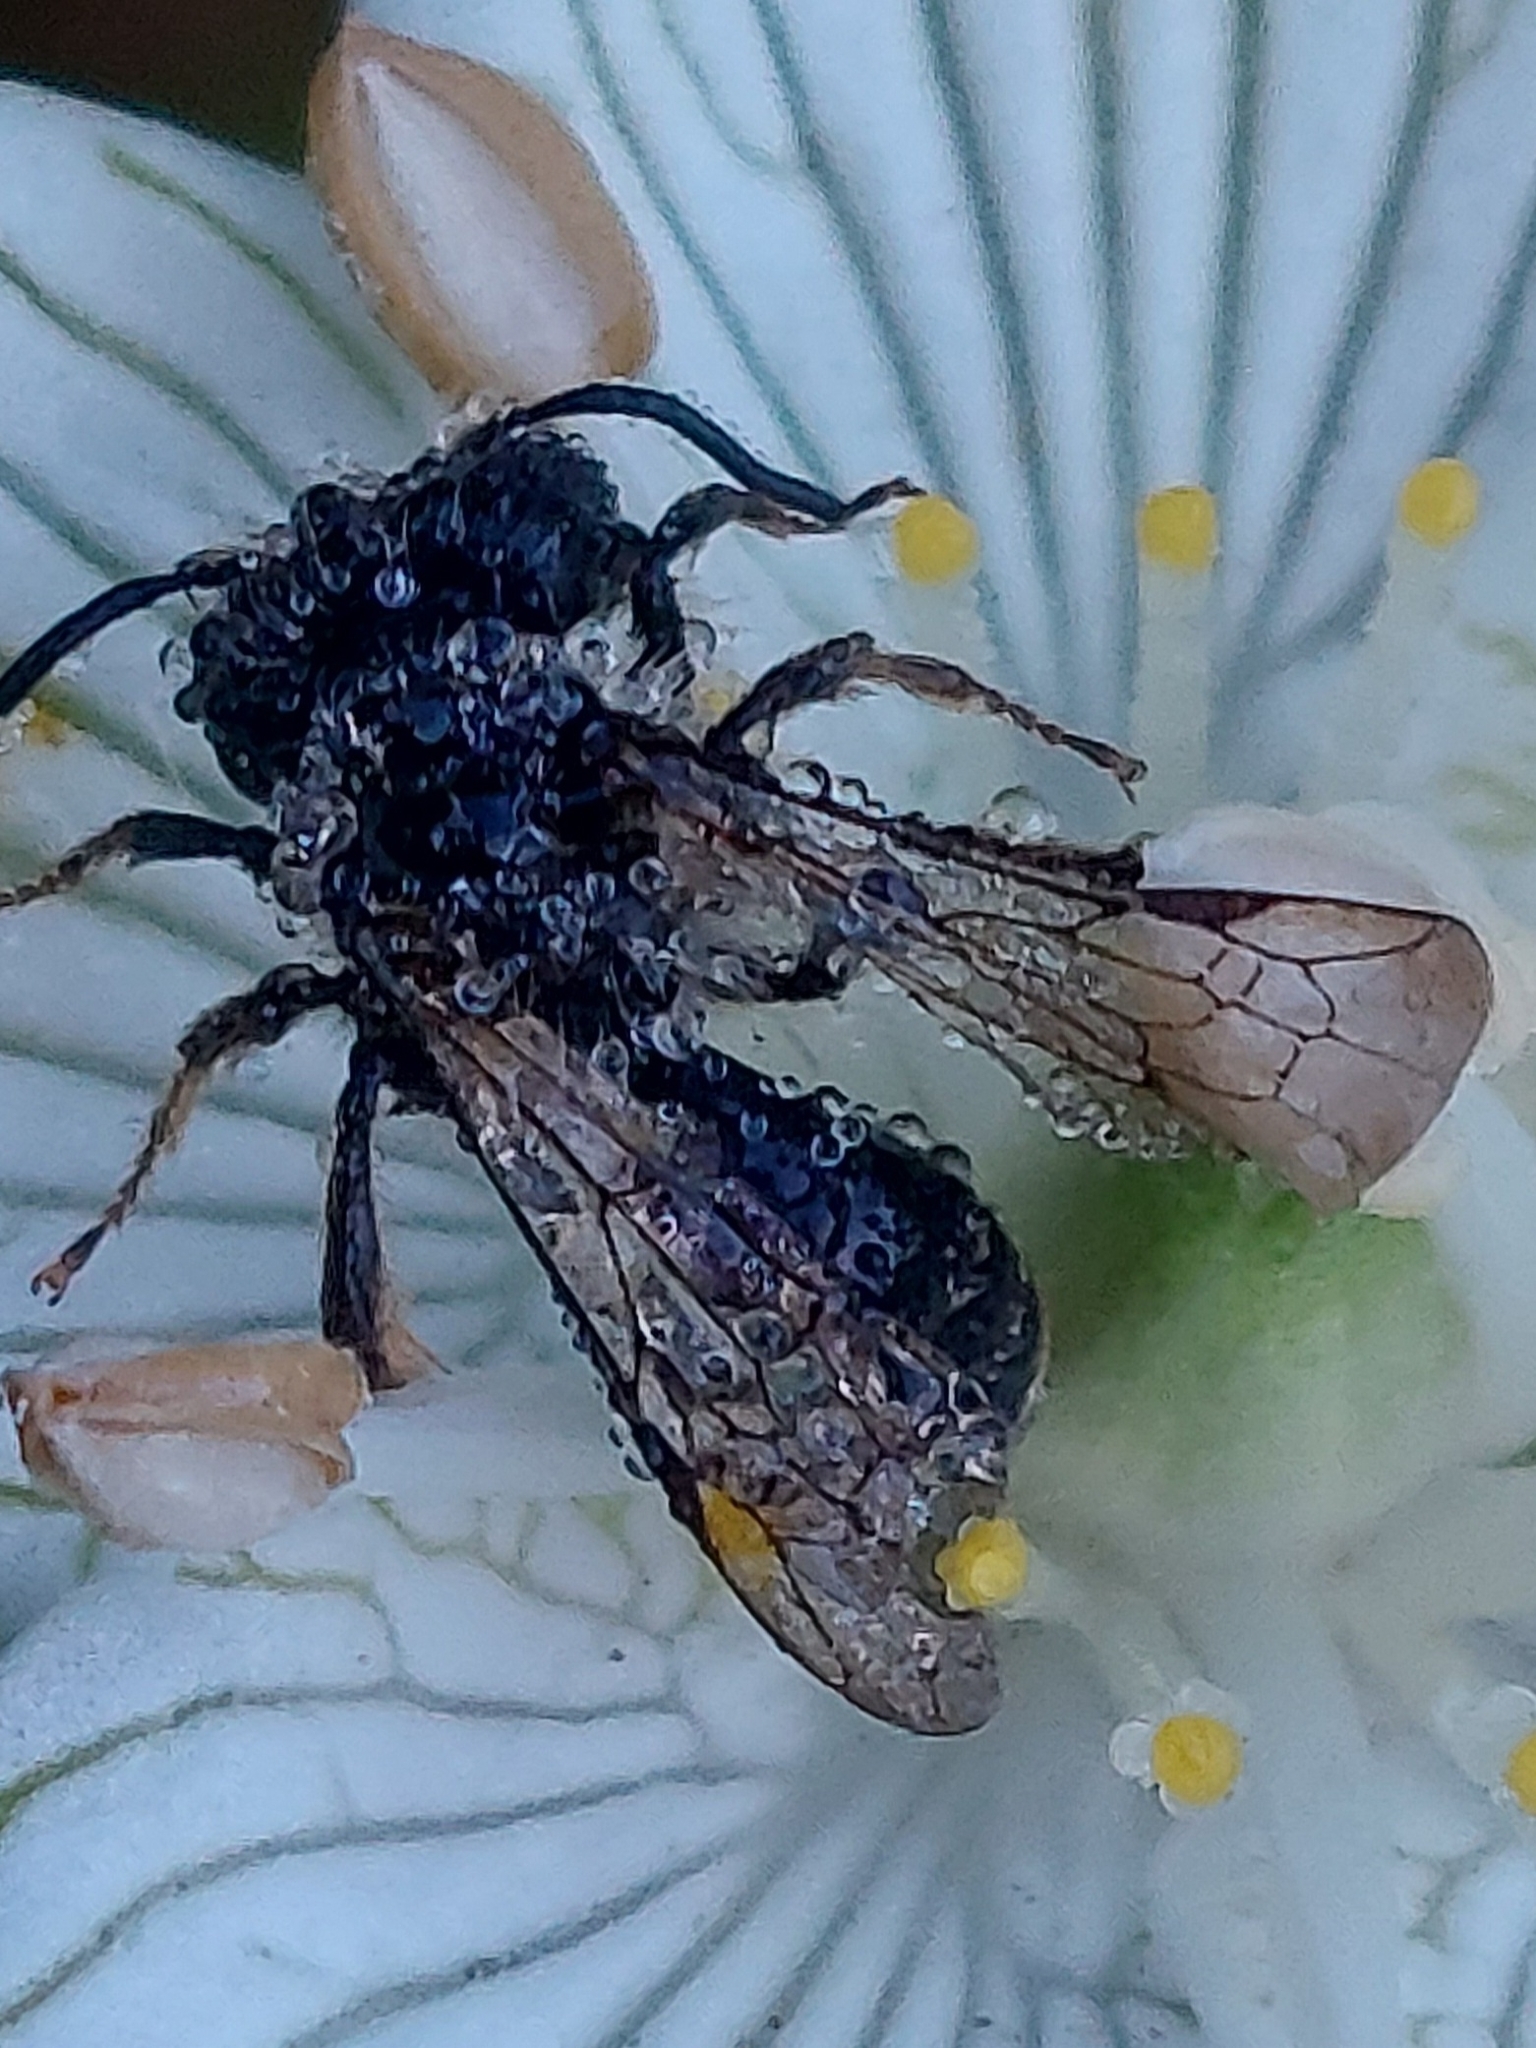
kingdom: Animalia
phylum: Arthropoda
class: Insecta
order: Hymenoptera
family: Andrenidae
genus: Andrena
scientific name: Andrena parnassiae
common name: Parnassia miner
